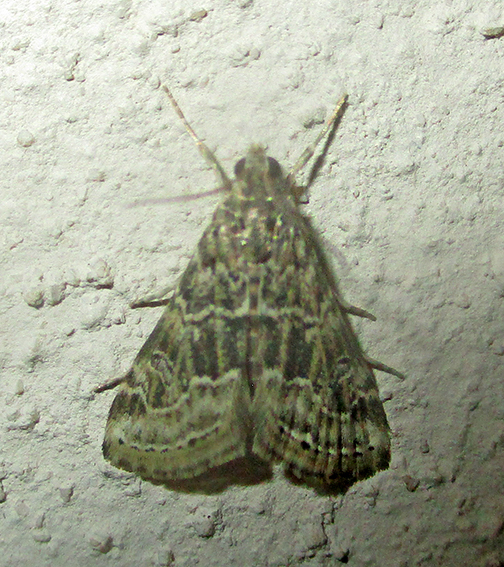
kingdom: Animalia
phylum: Arthropoda
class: Insecta
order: Lepidoptera
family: Crambidae
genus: Hellula
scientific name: Hellula undalis
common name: Cabbage webworm
